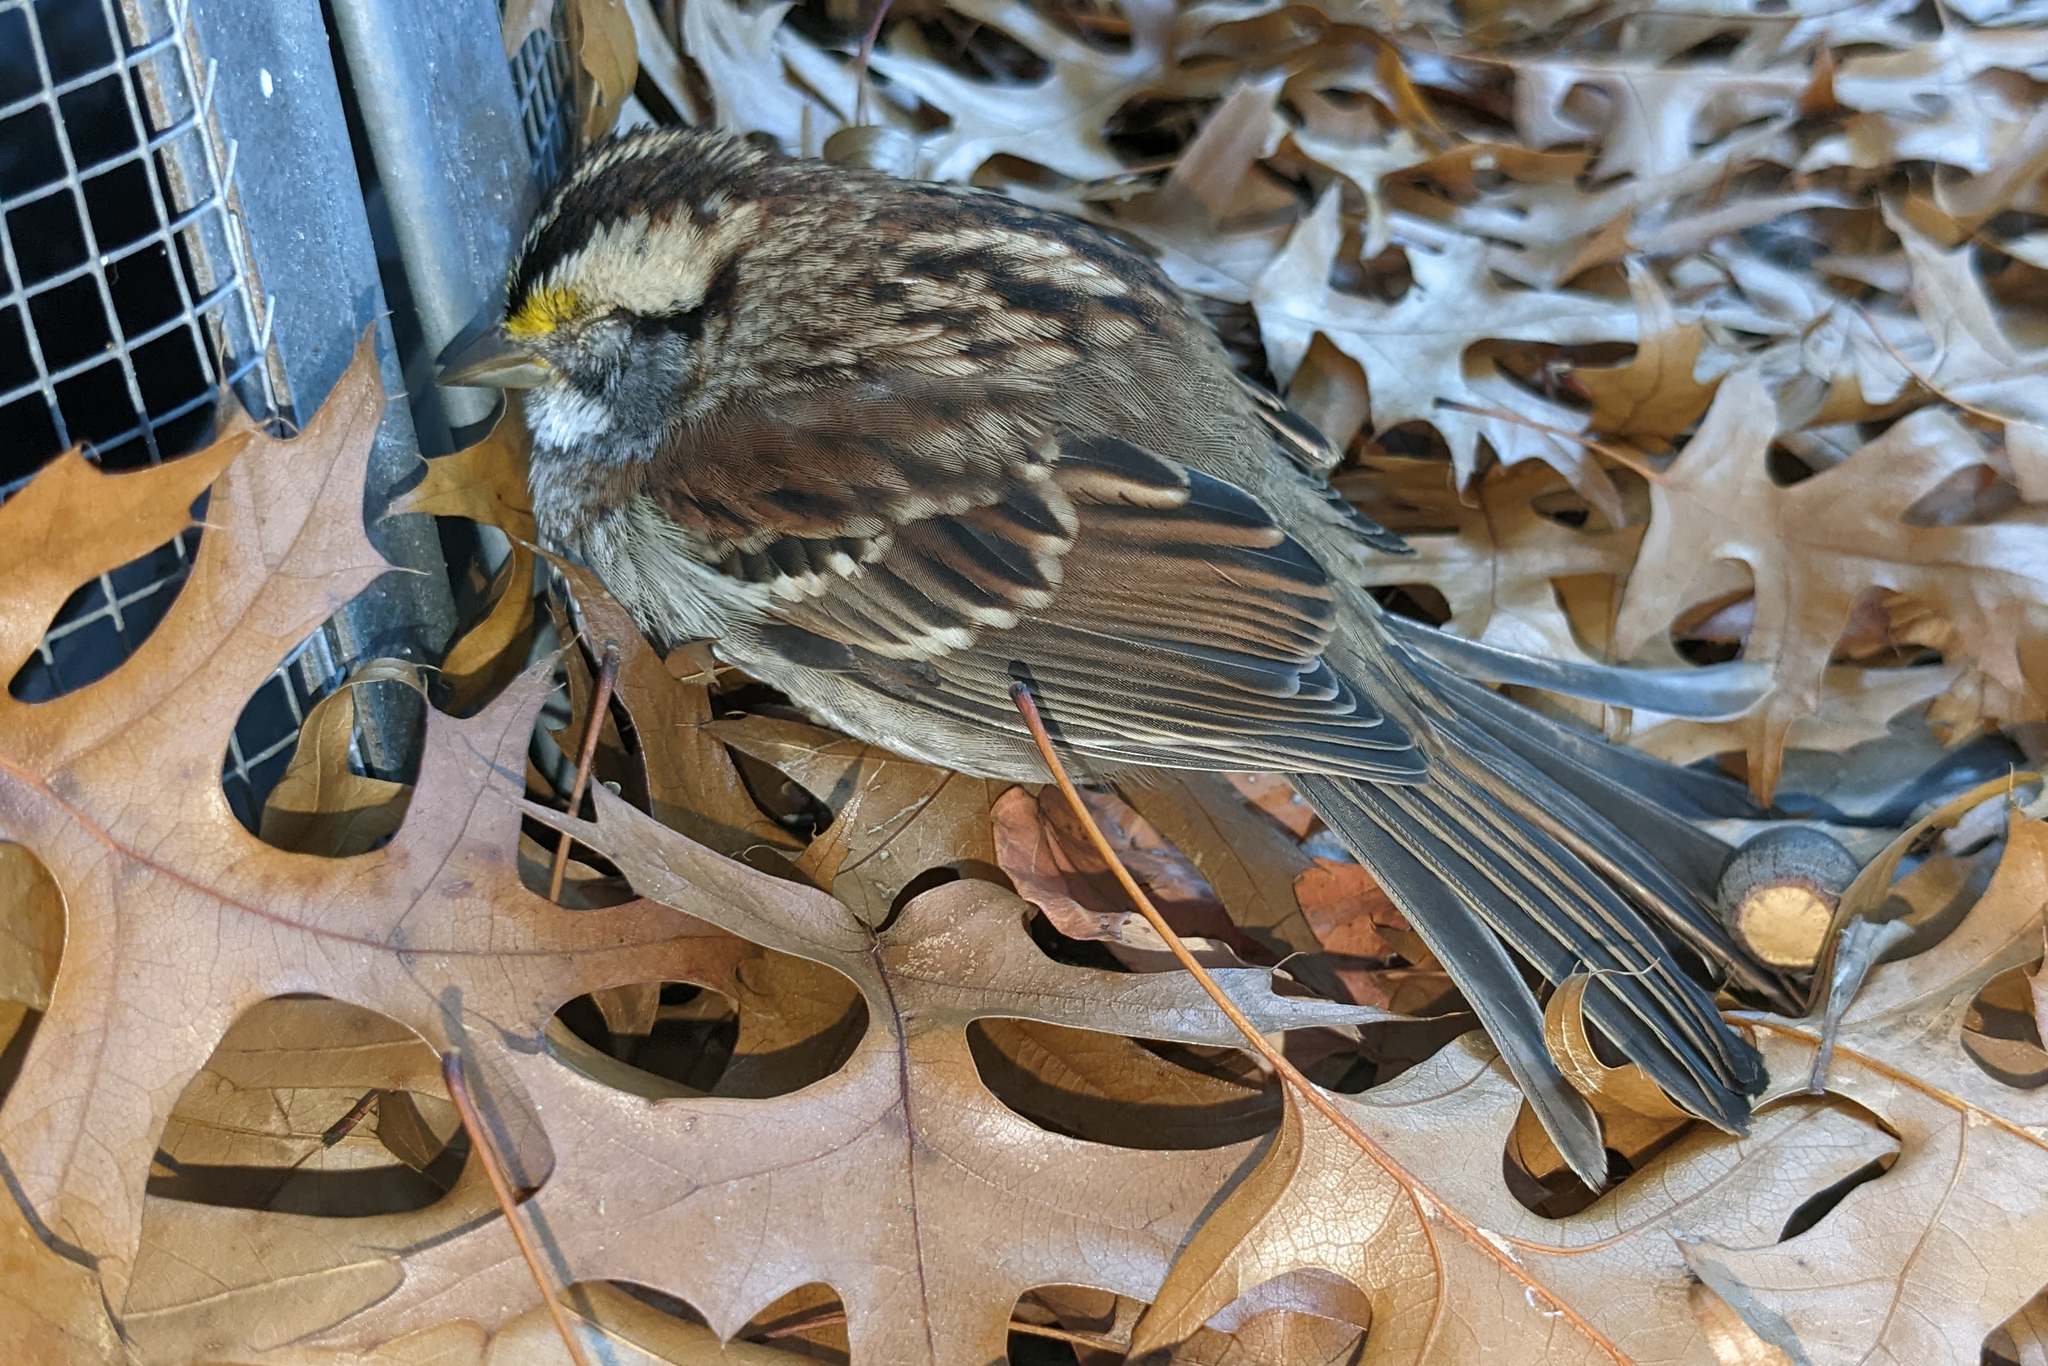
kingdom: Animalia
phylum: Chordata
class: Aves
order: Passeriformes
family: Passerellidae
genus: Zonotrichia
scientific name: Zonotrichia albicollis
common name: White-throated sparrow
